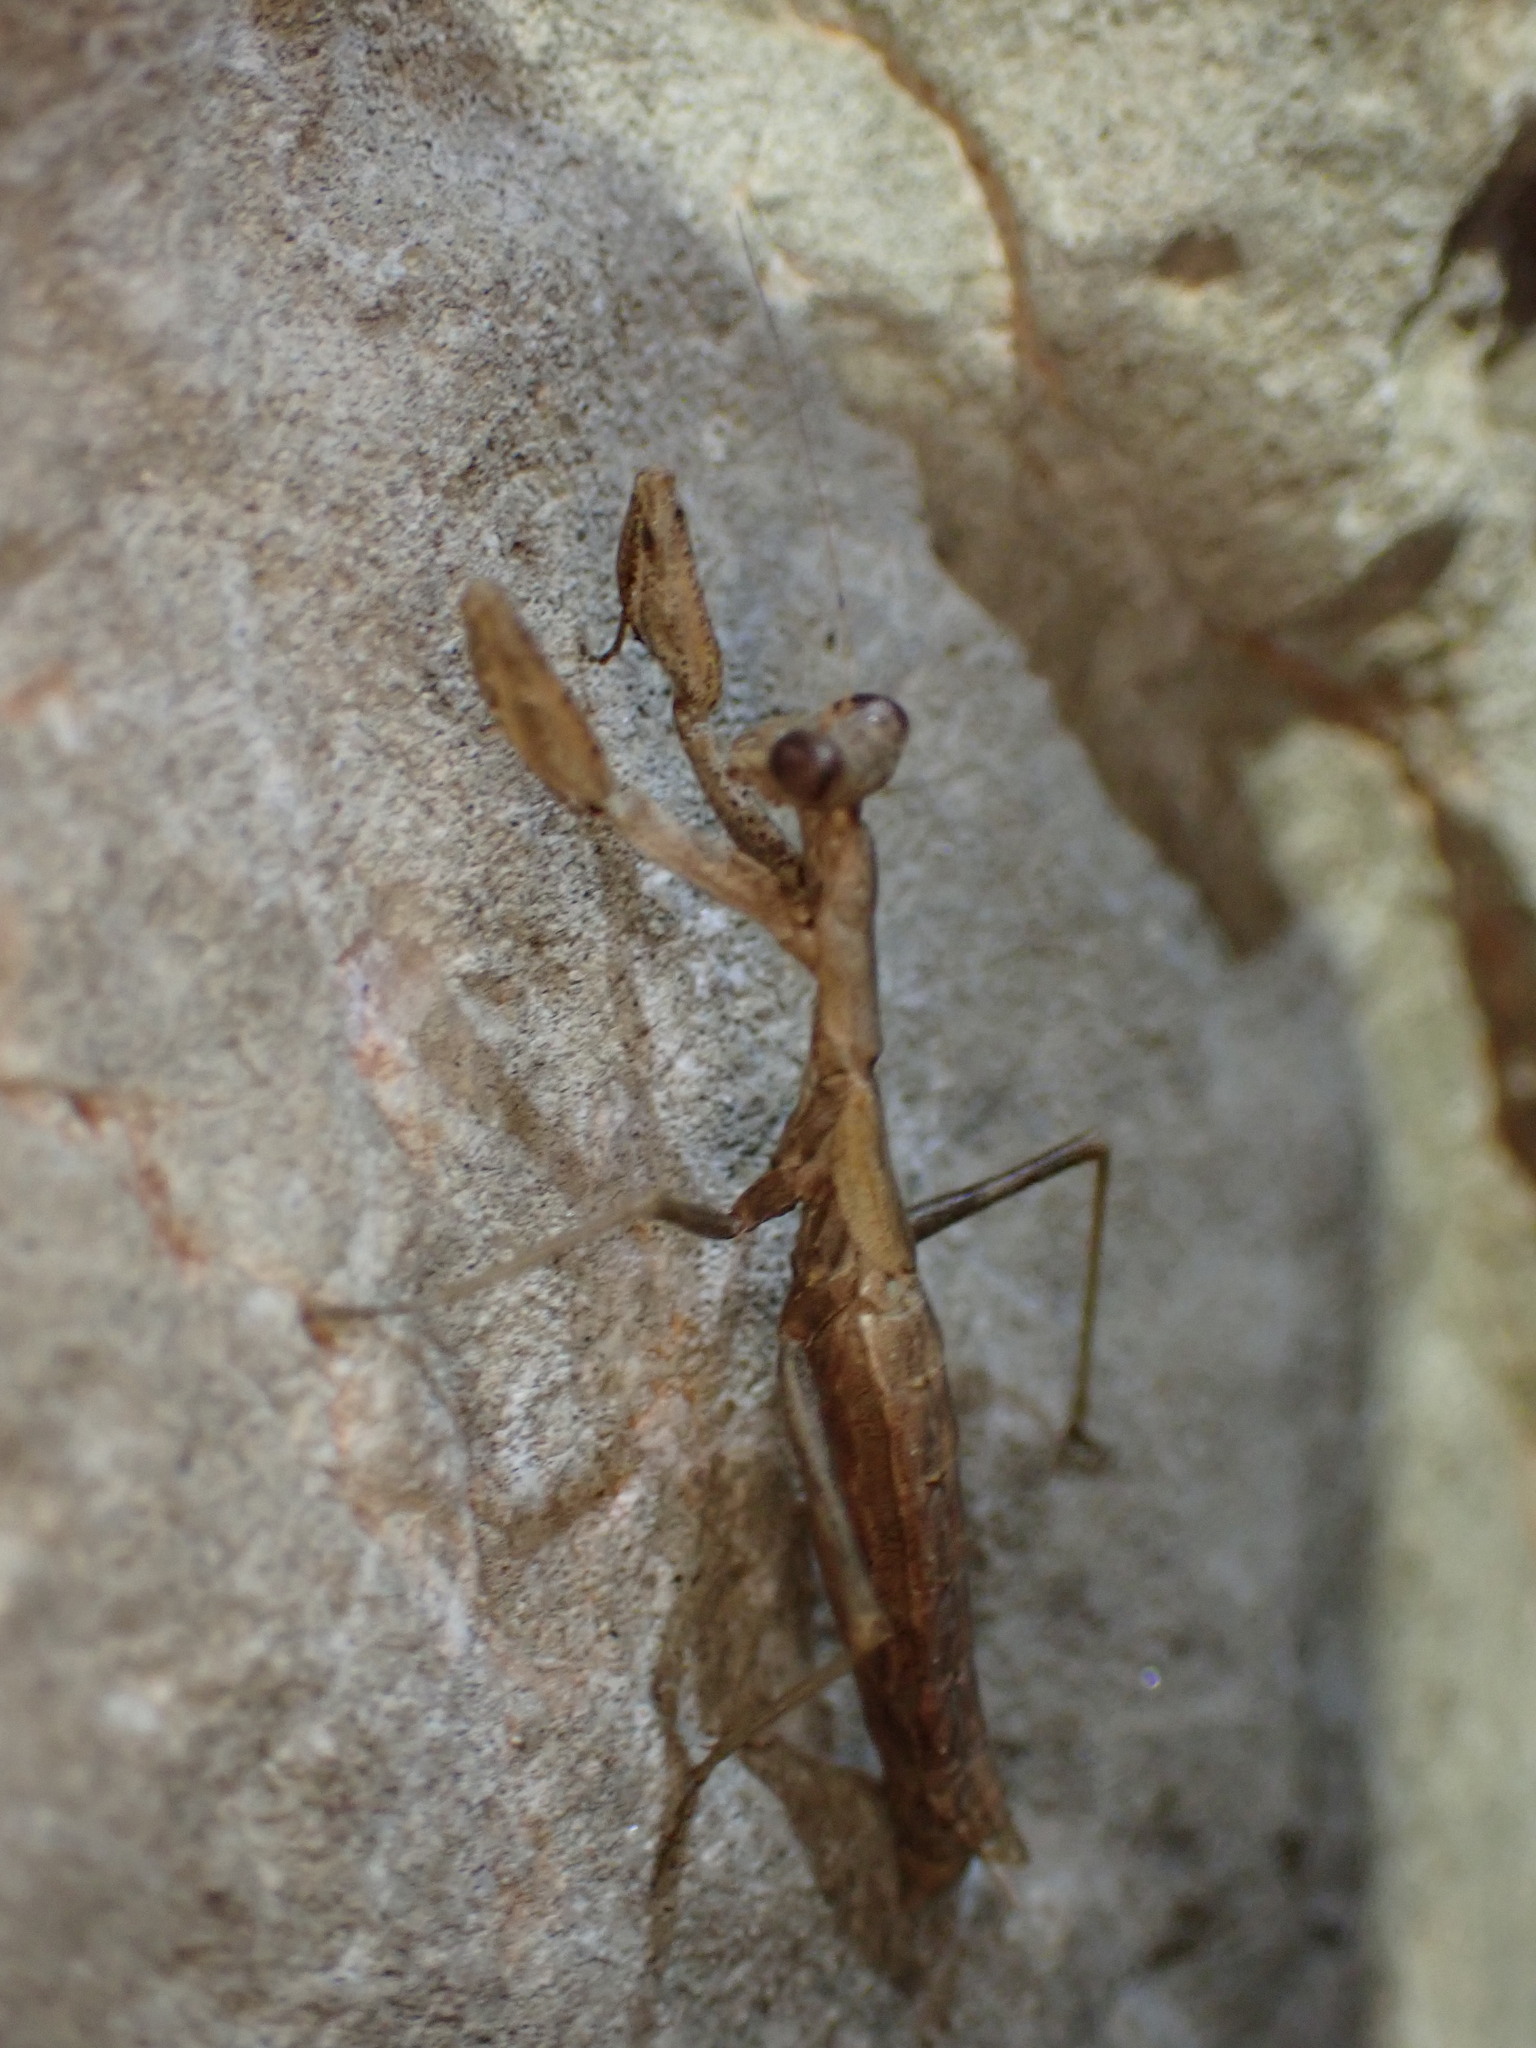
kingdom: Animalia
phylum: Arthropoda
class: Insecta
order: Mantodea
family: Amelidae
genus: Ameles
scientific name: Ameles decolor
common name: Dwarf mantis
